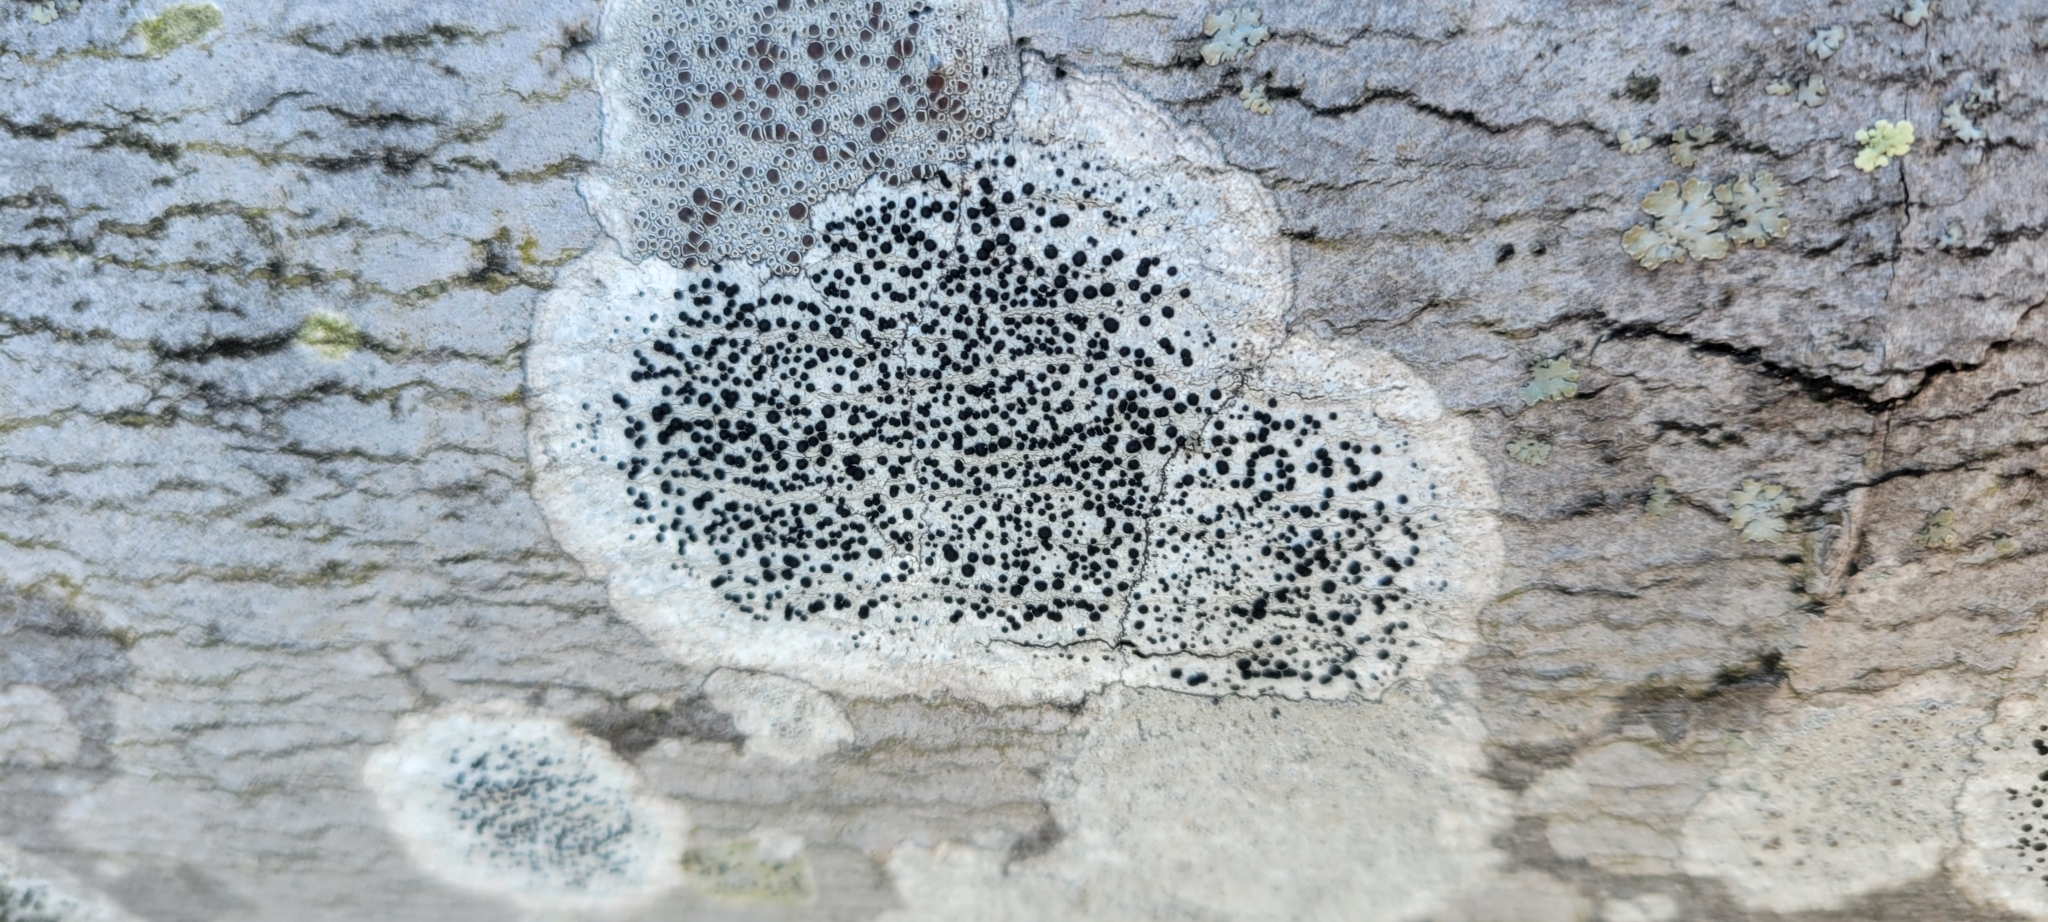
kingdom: Fungi
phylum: Ascomycota
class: Lecanoromycetes
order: Caliciales
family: Caliciaceae
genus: Buellia
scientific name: Buellia erubescens
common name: Common button lichen
